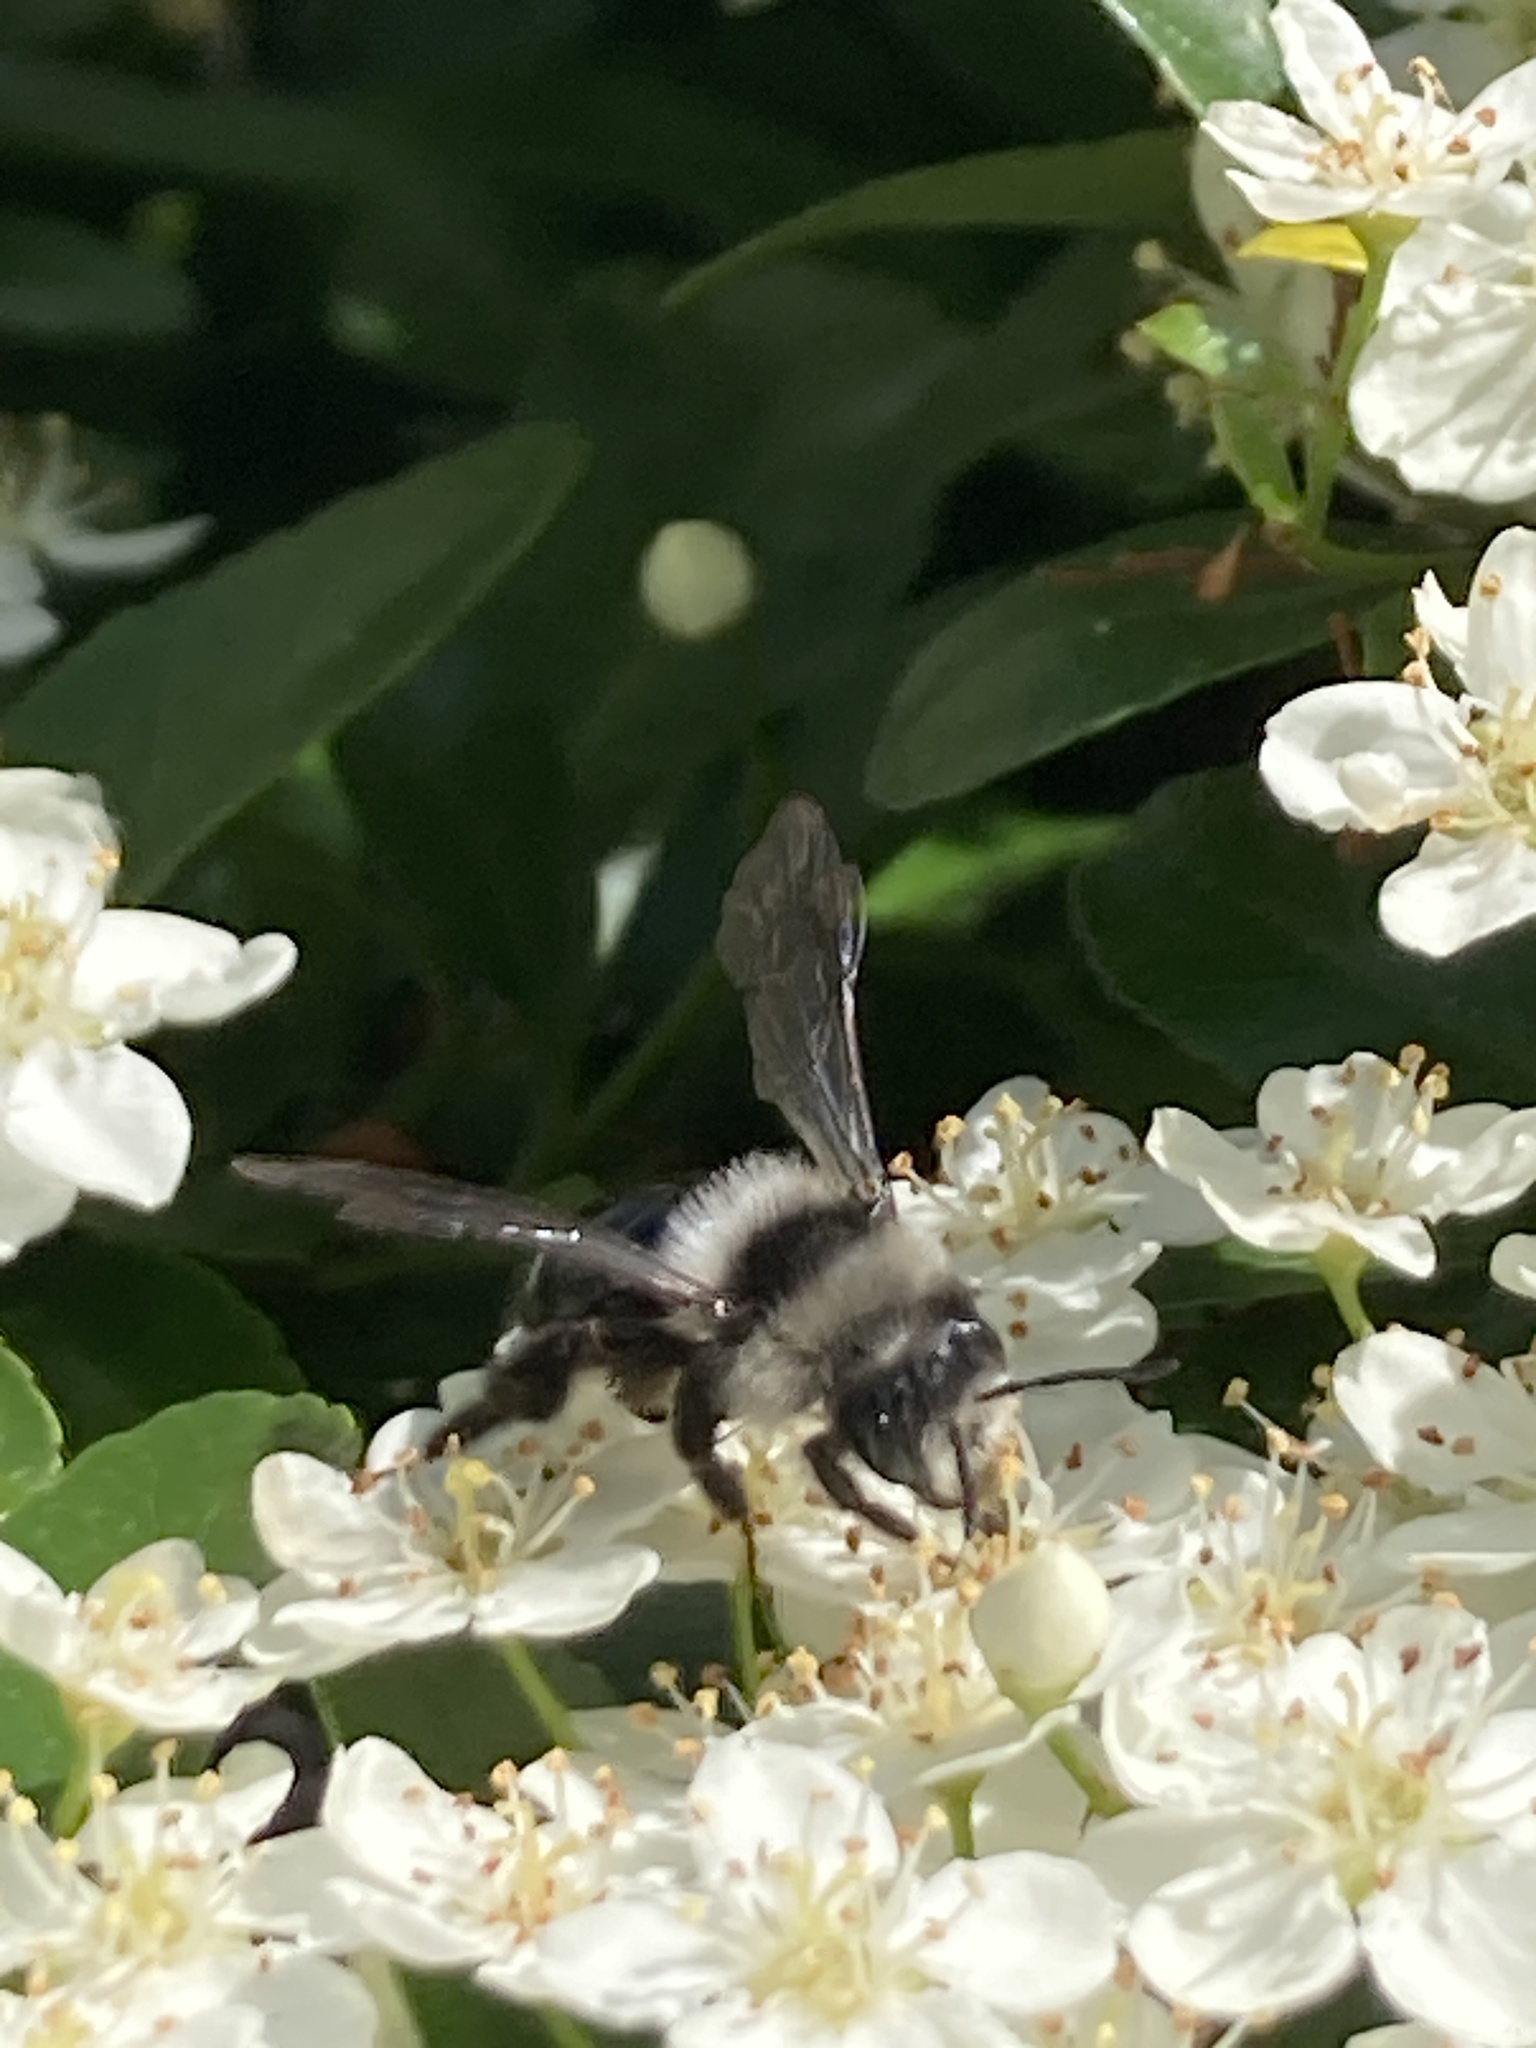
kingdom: Animalia
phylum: Arthropoda
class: Insecta
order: Hymenoptera
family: Andrenidae
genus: Andrena
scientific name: Andrena cineraria
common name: Ashy mining bee
